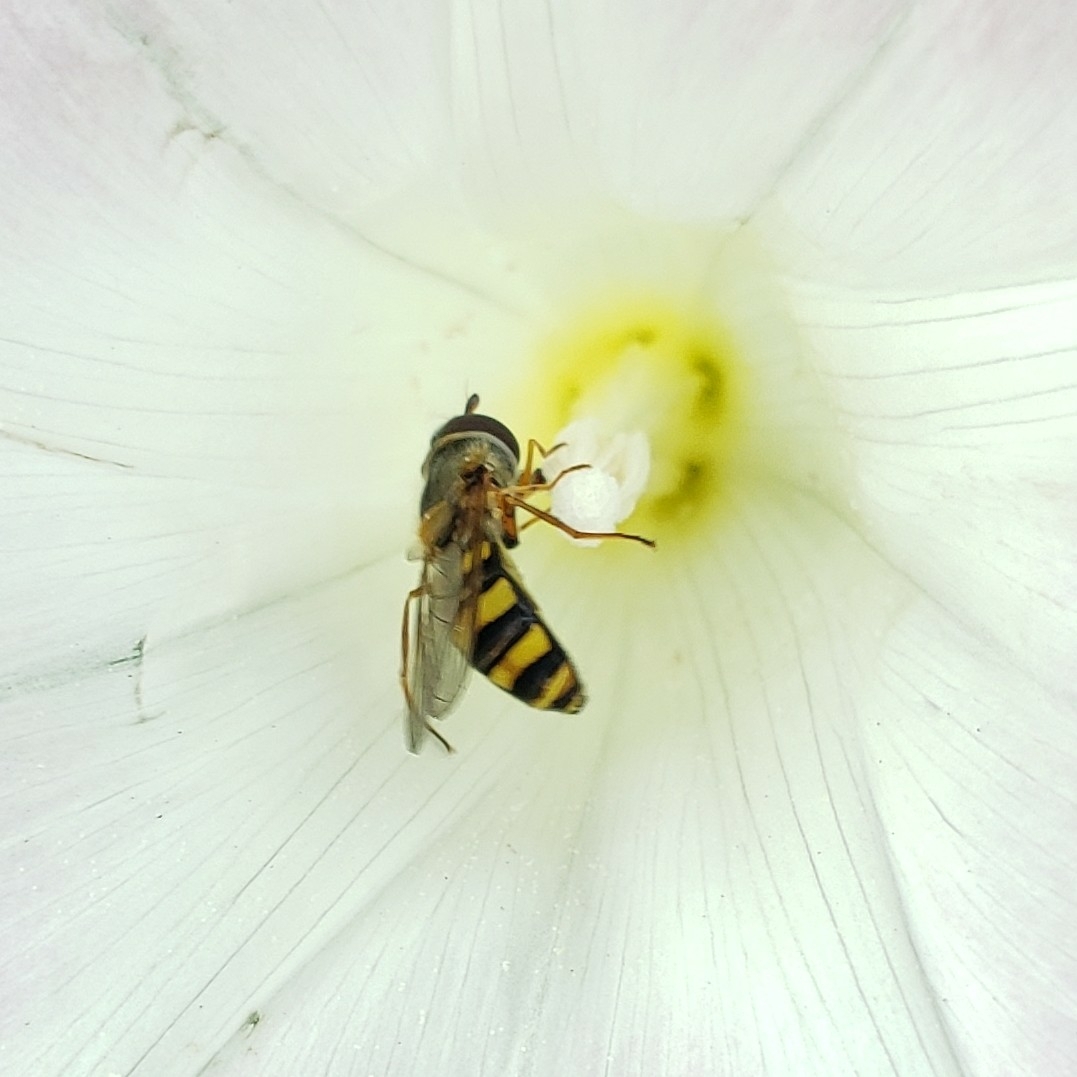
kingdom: Animalia
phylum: Arthropoda
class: Insecta
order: Diptera
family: Syrphidae
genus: Eupeodes
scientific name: Eupeodes
